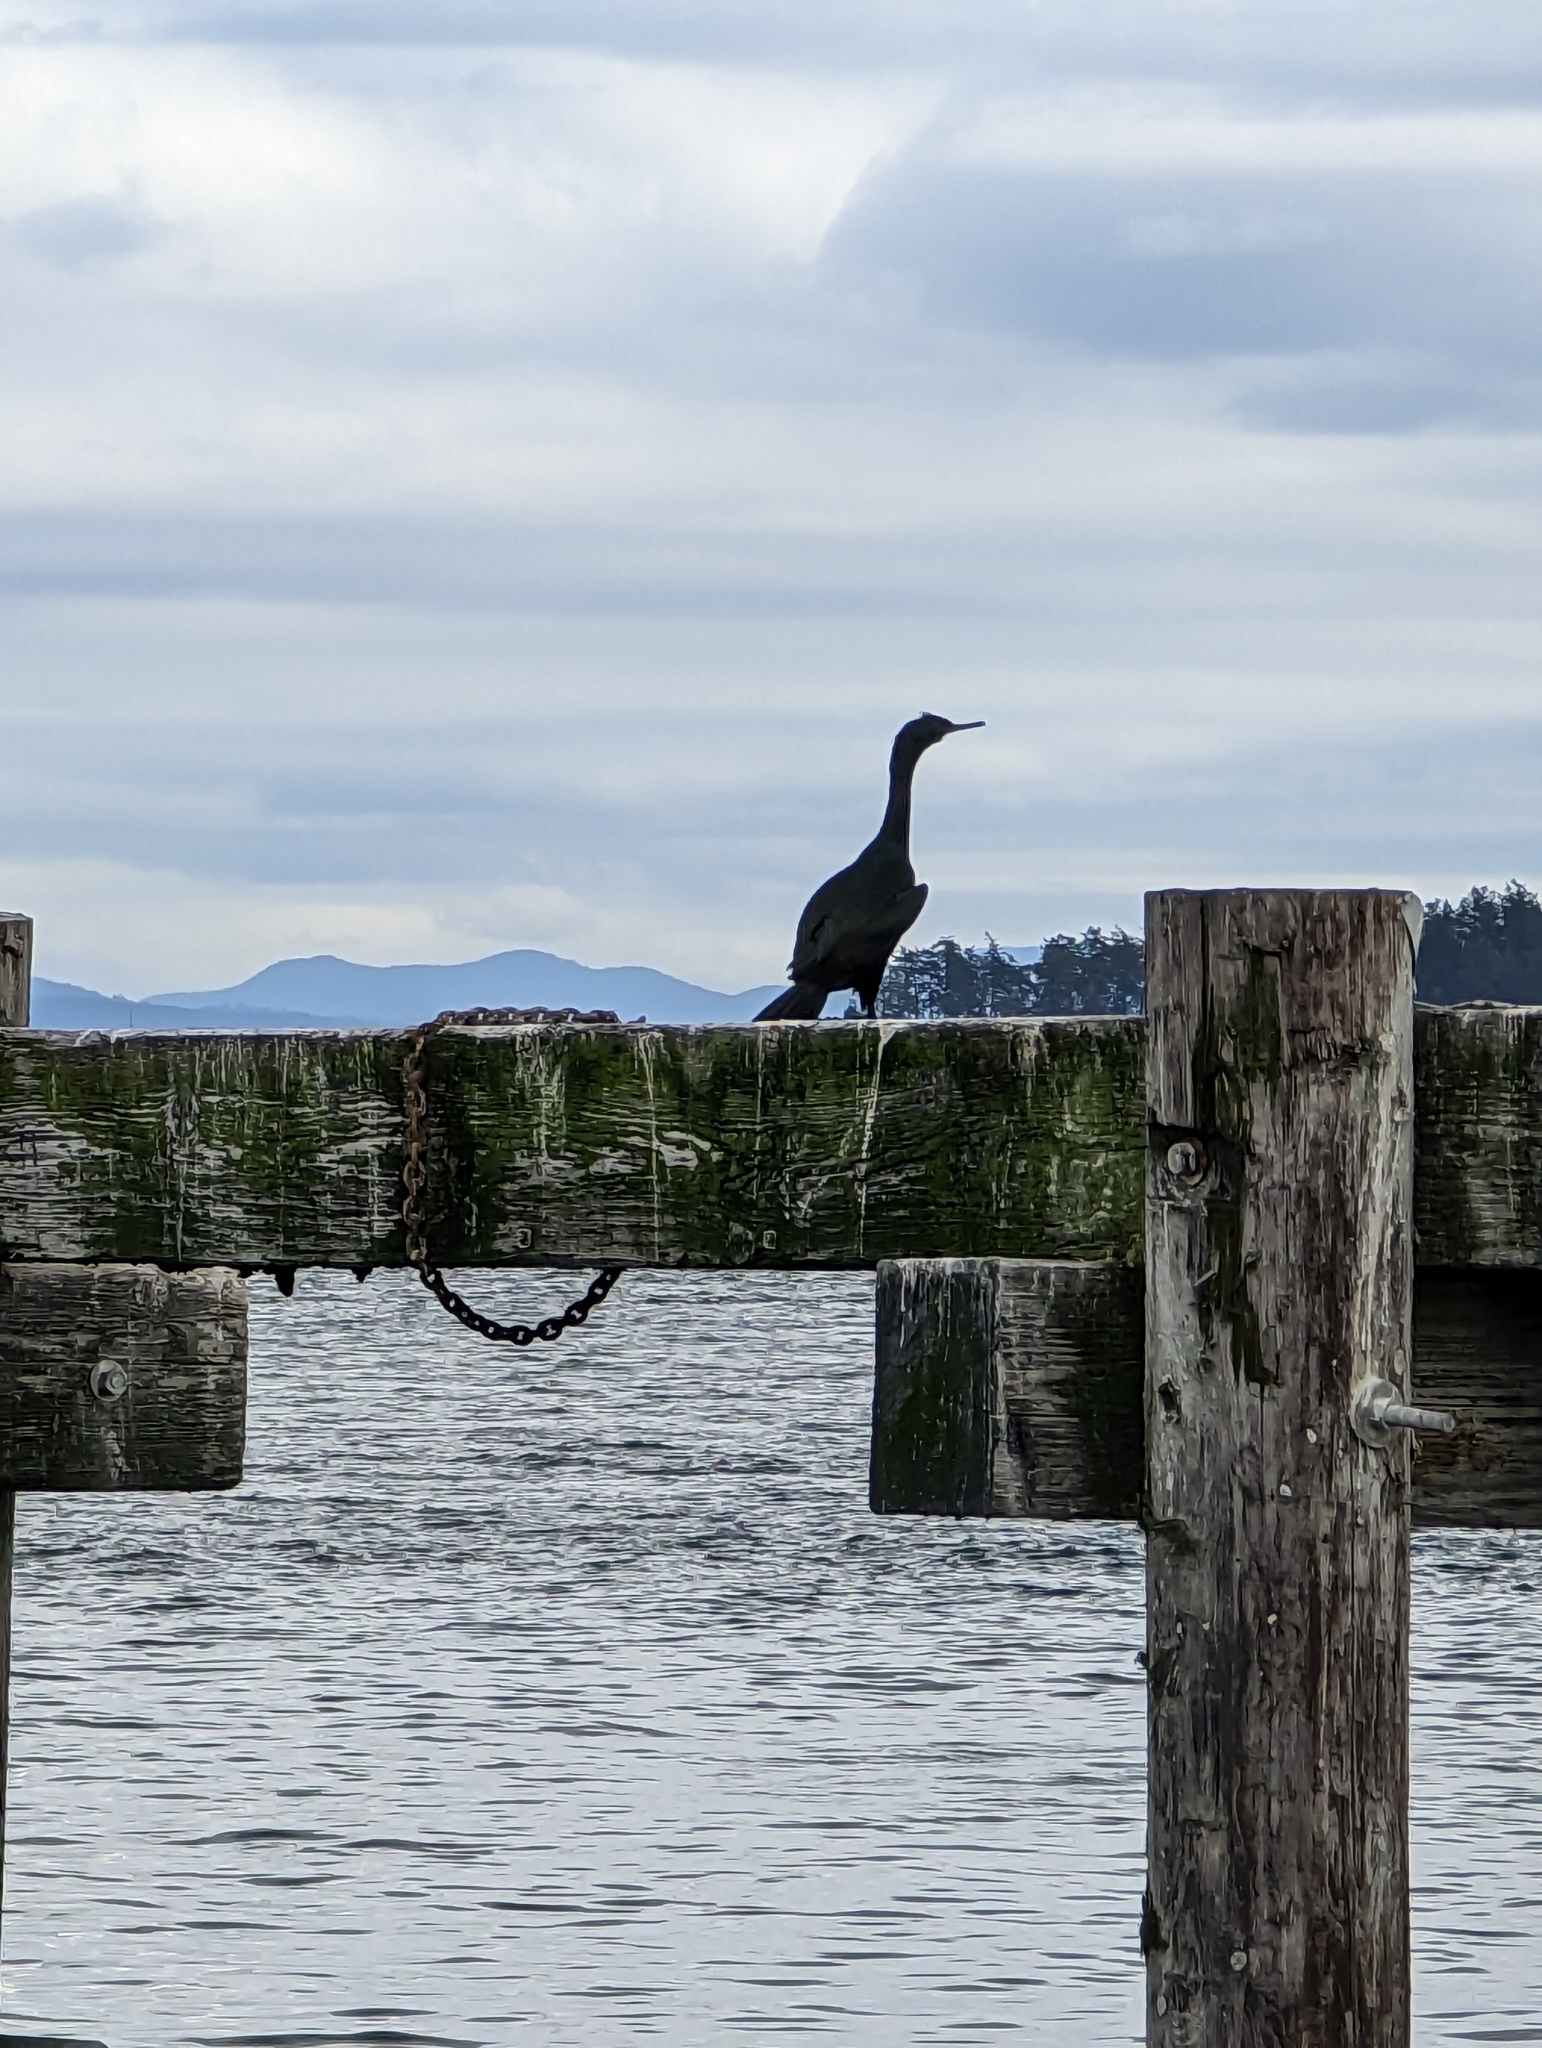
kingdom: Animalia
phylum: Chordata
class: Aves
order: Suliformes
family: Phalacrocoracidae
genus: Phalacrocorax
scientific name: Phalacrocorax pelagicus
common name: Pelagic cormorant
